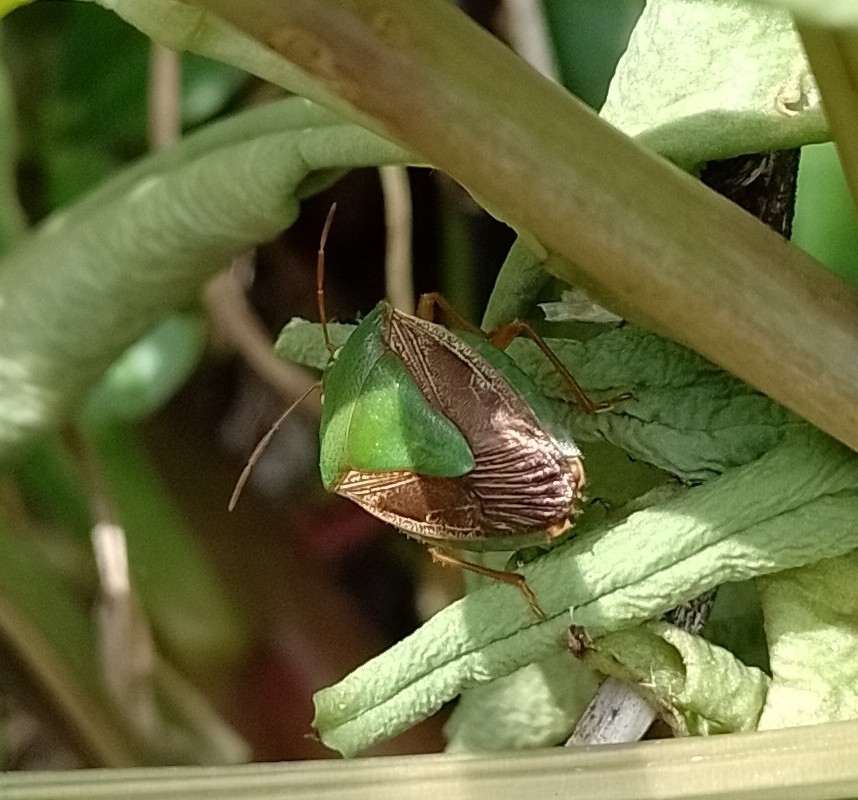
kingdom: Animalia
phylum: Arthropoda
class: Insecta
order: Hemiptera
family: Pentatomidae
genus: Edessa
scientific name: Edessa meditabunda
